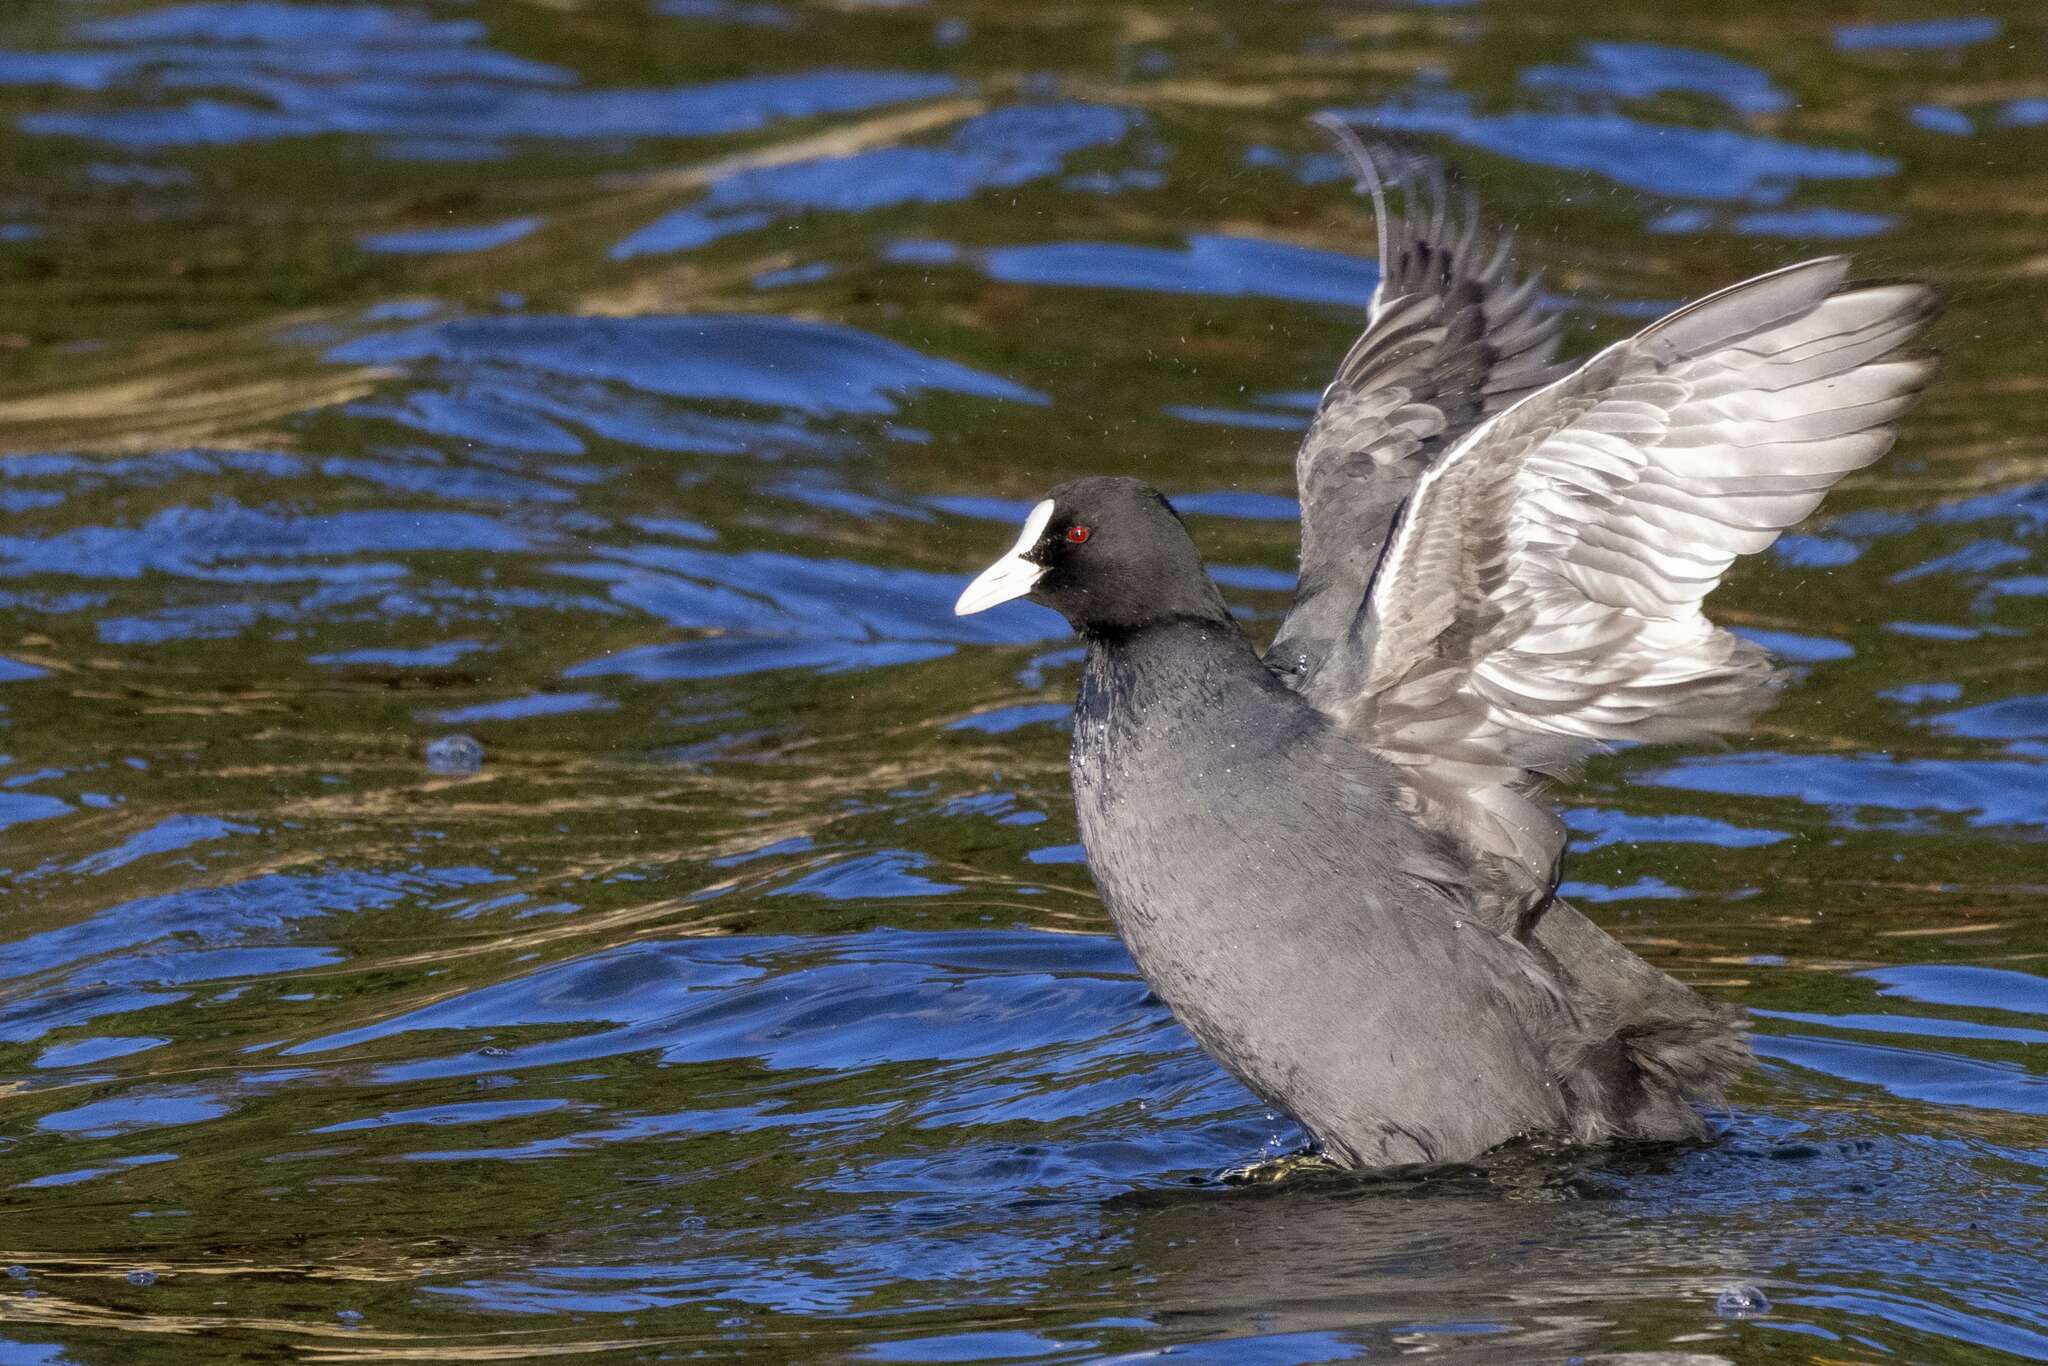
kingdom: Animalia
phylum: Chordata
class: Aves
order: Gruiformes
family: Rallidae
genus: Fulica
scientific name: Fulica atra
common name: Eurasian coot
